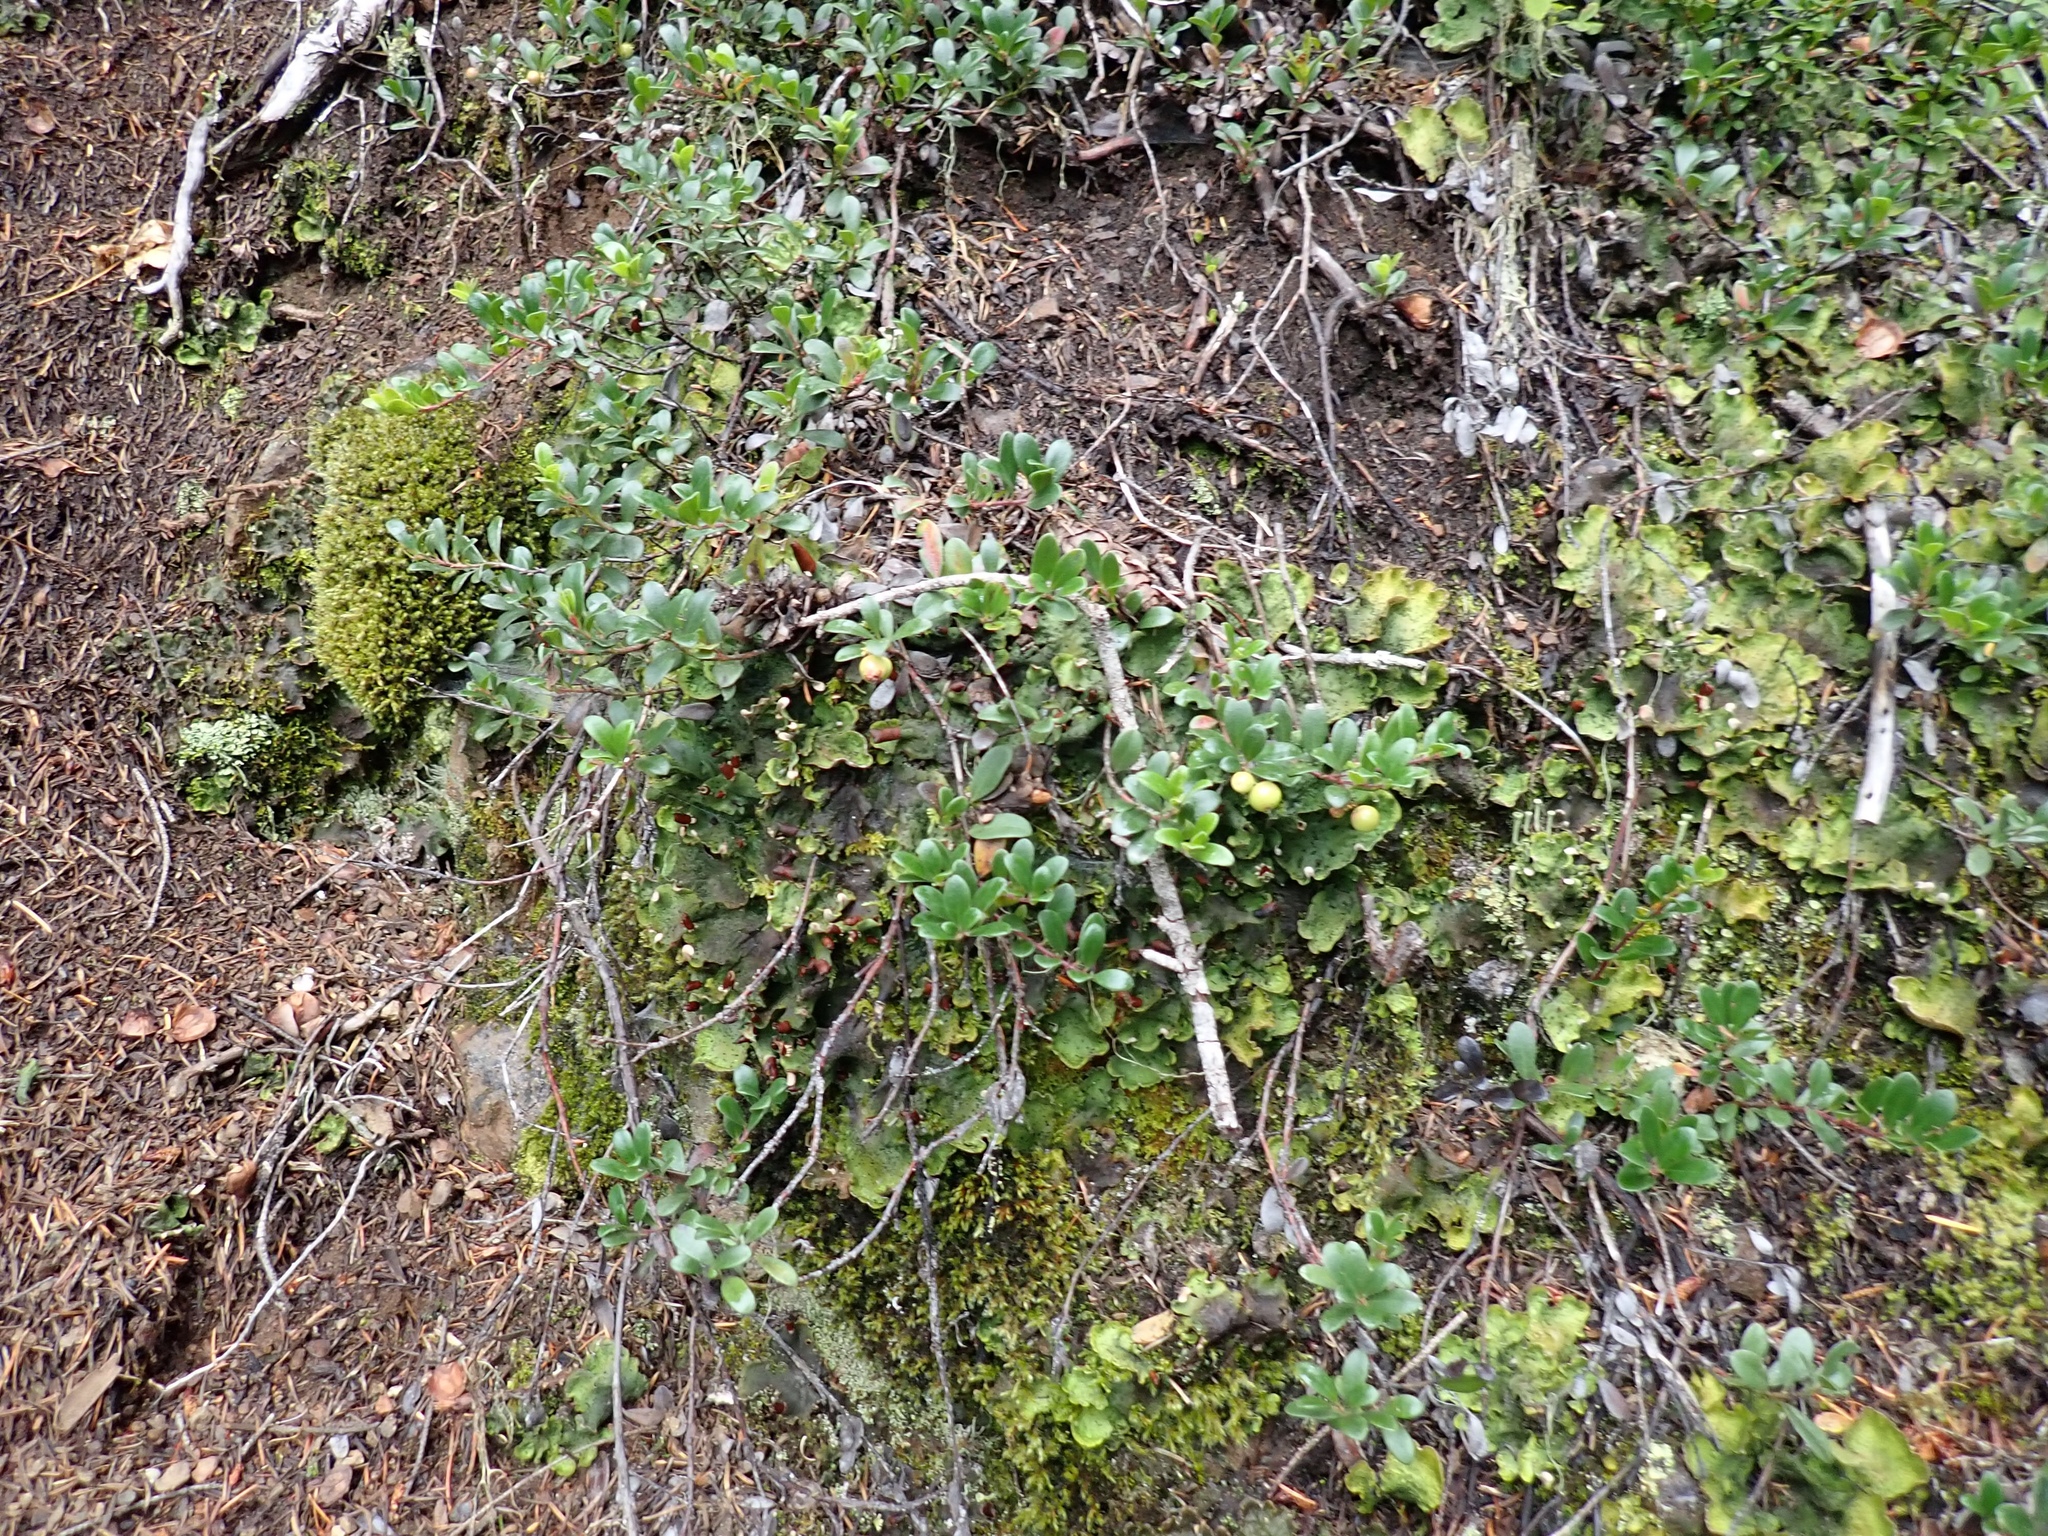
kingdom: Plantae
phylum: Tracheophyta
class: Magnoliopsida
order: Ericales
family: Ericaceae
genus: Arctostaphylos
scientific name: Arctostaphylos uva-ursi
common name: Bearberry
